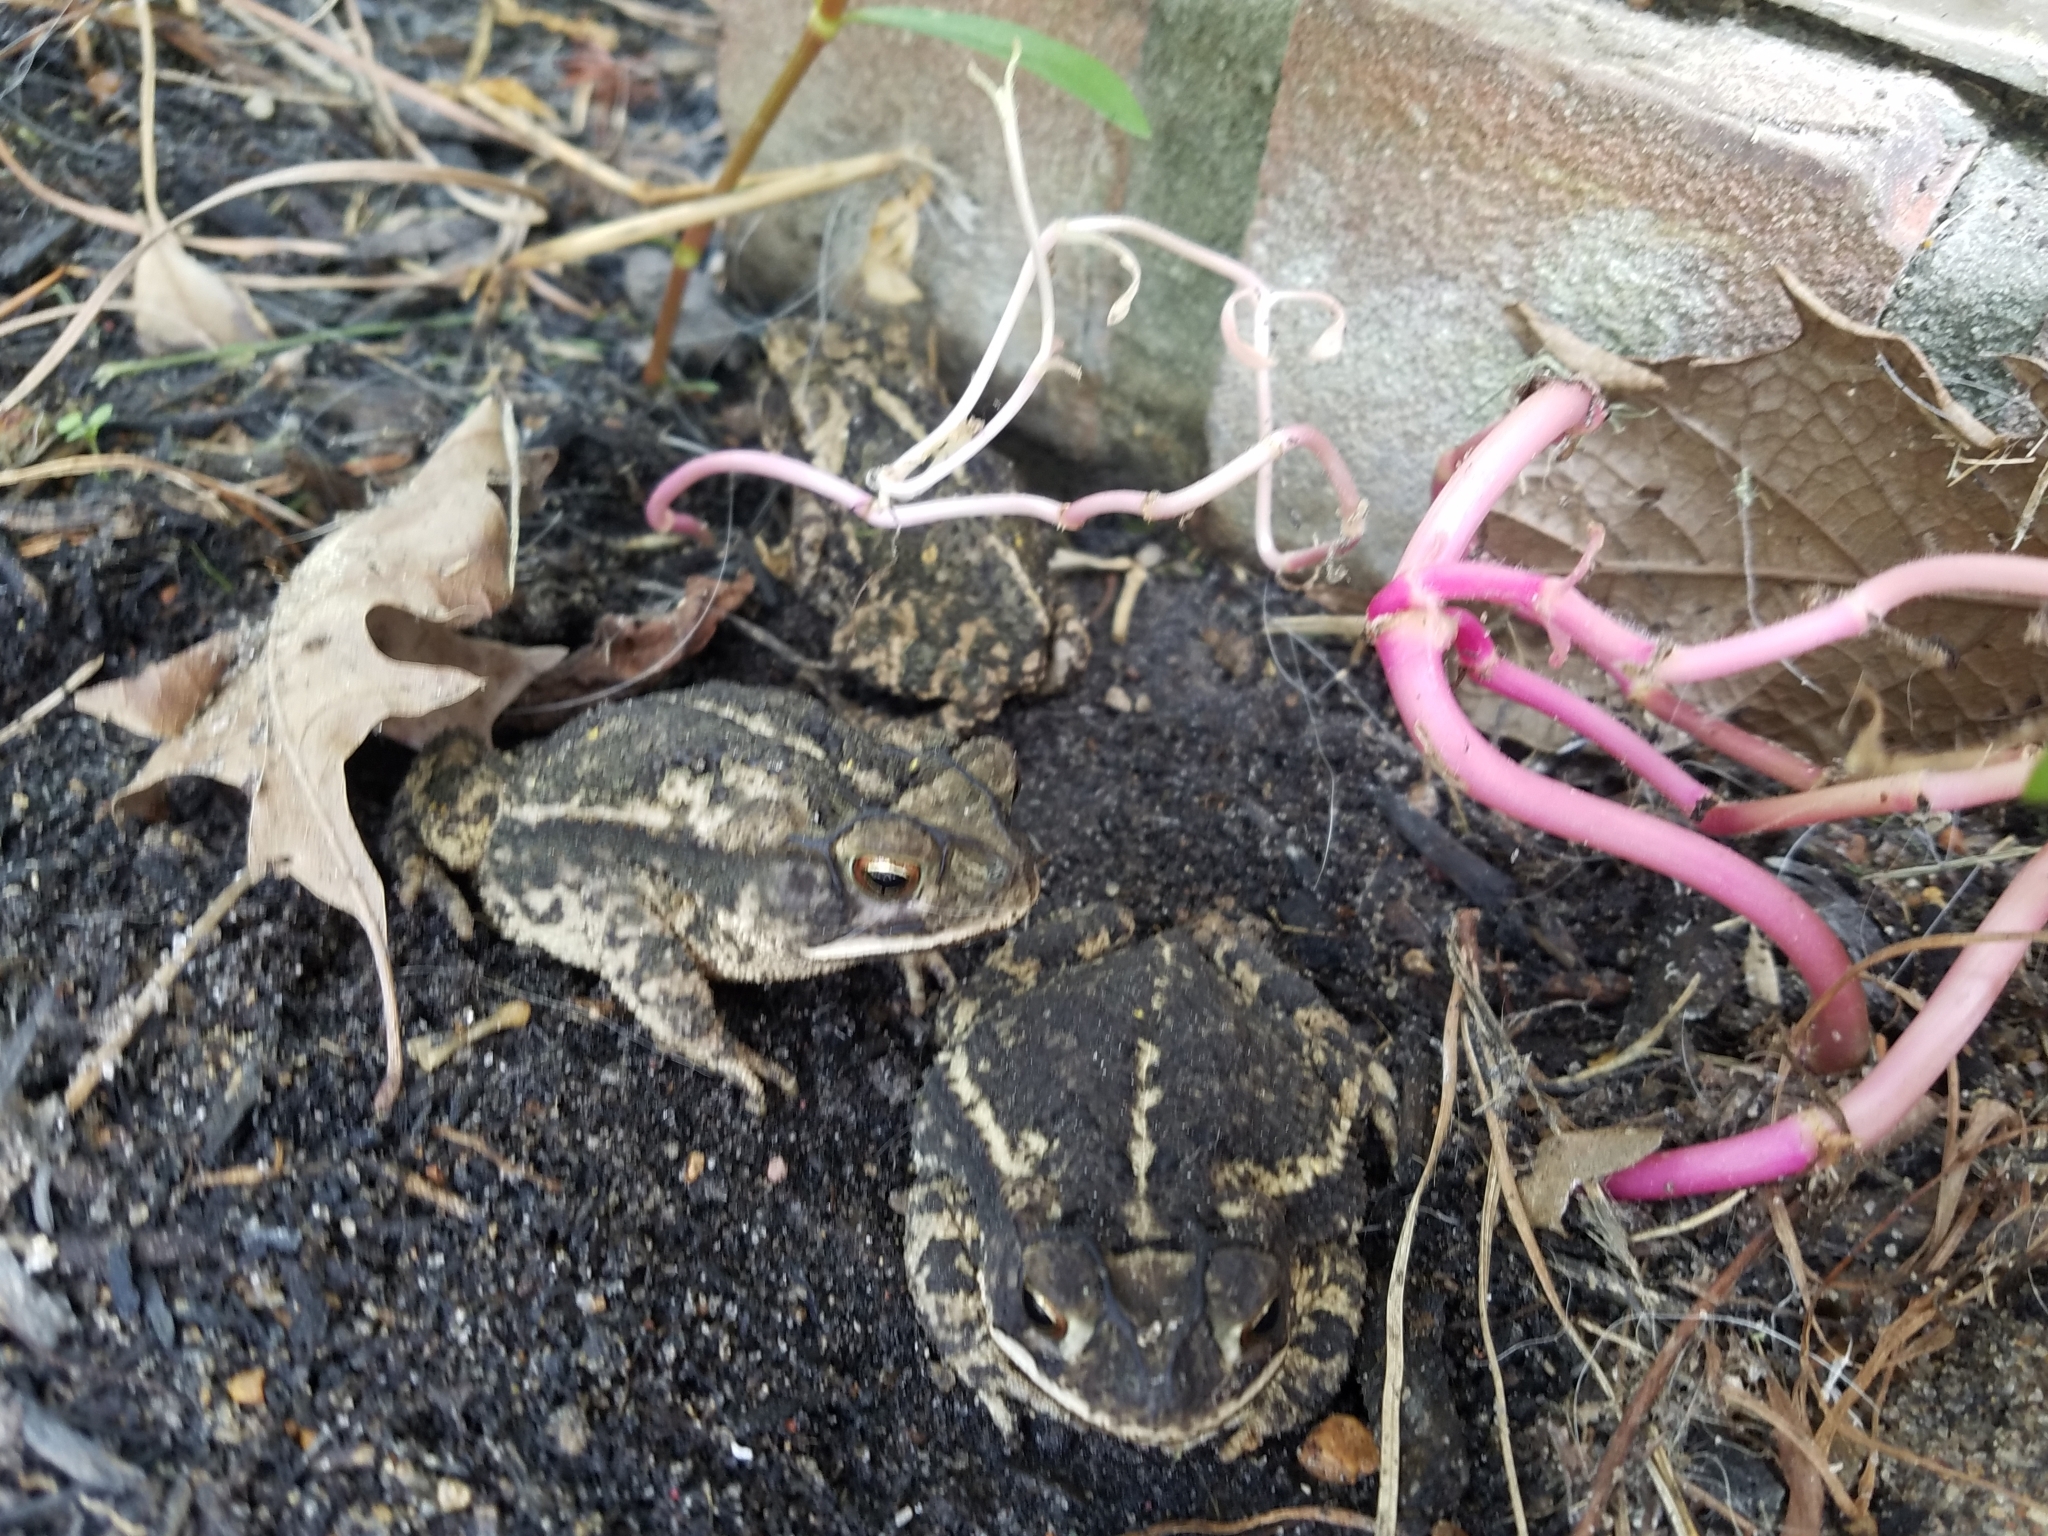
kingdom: Animalia
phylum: Chordata
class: Amphibia
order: Anura
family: Bufonidae
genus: Incilius
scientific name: Incilius nebulifer
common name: Gulf coast toad
